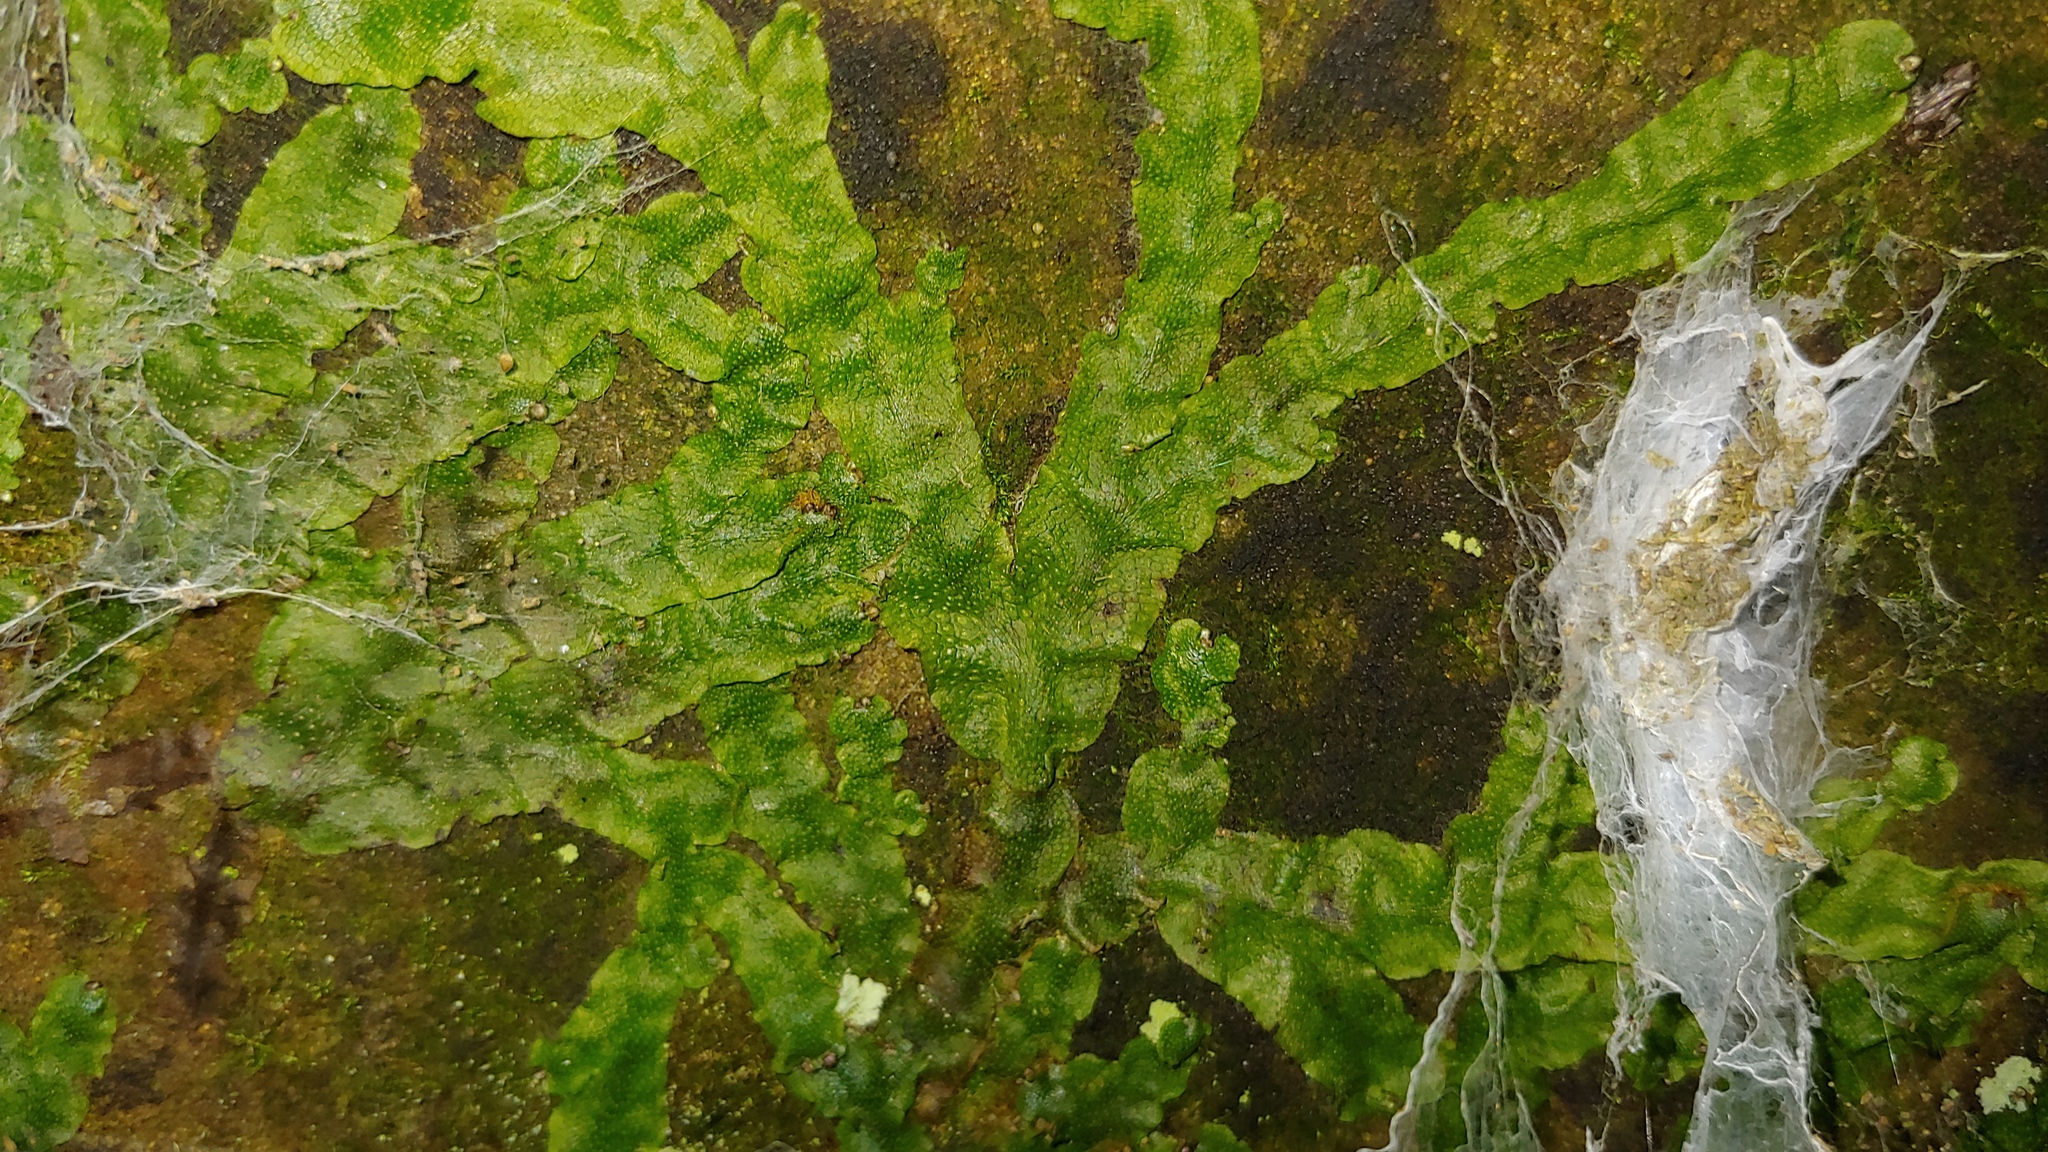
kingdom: Plantae
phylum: Marchantiophyta
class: Marchantiopsida
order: Marchantiales
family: Conocephalaceae
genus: Conocephalum
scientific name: Conocephalum salebrosum
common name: Cat-tongue liverwort
